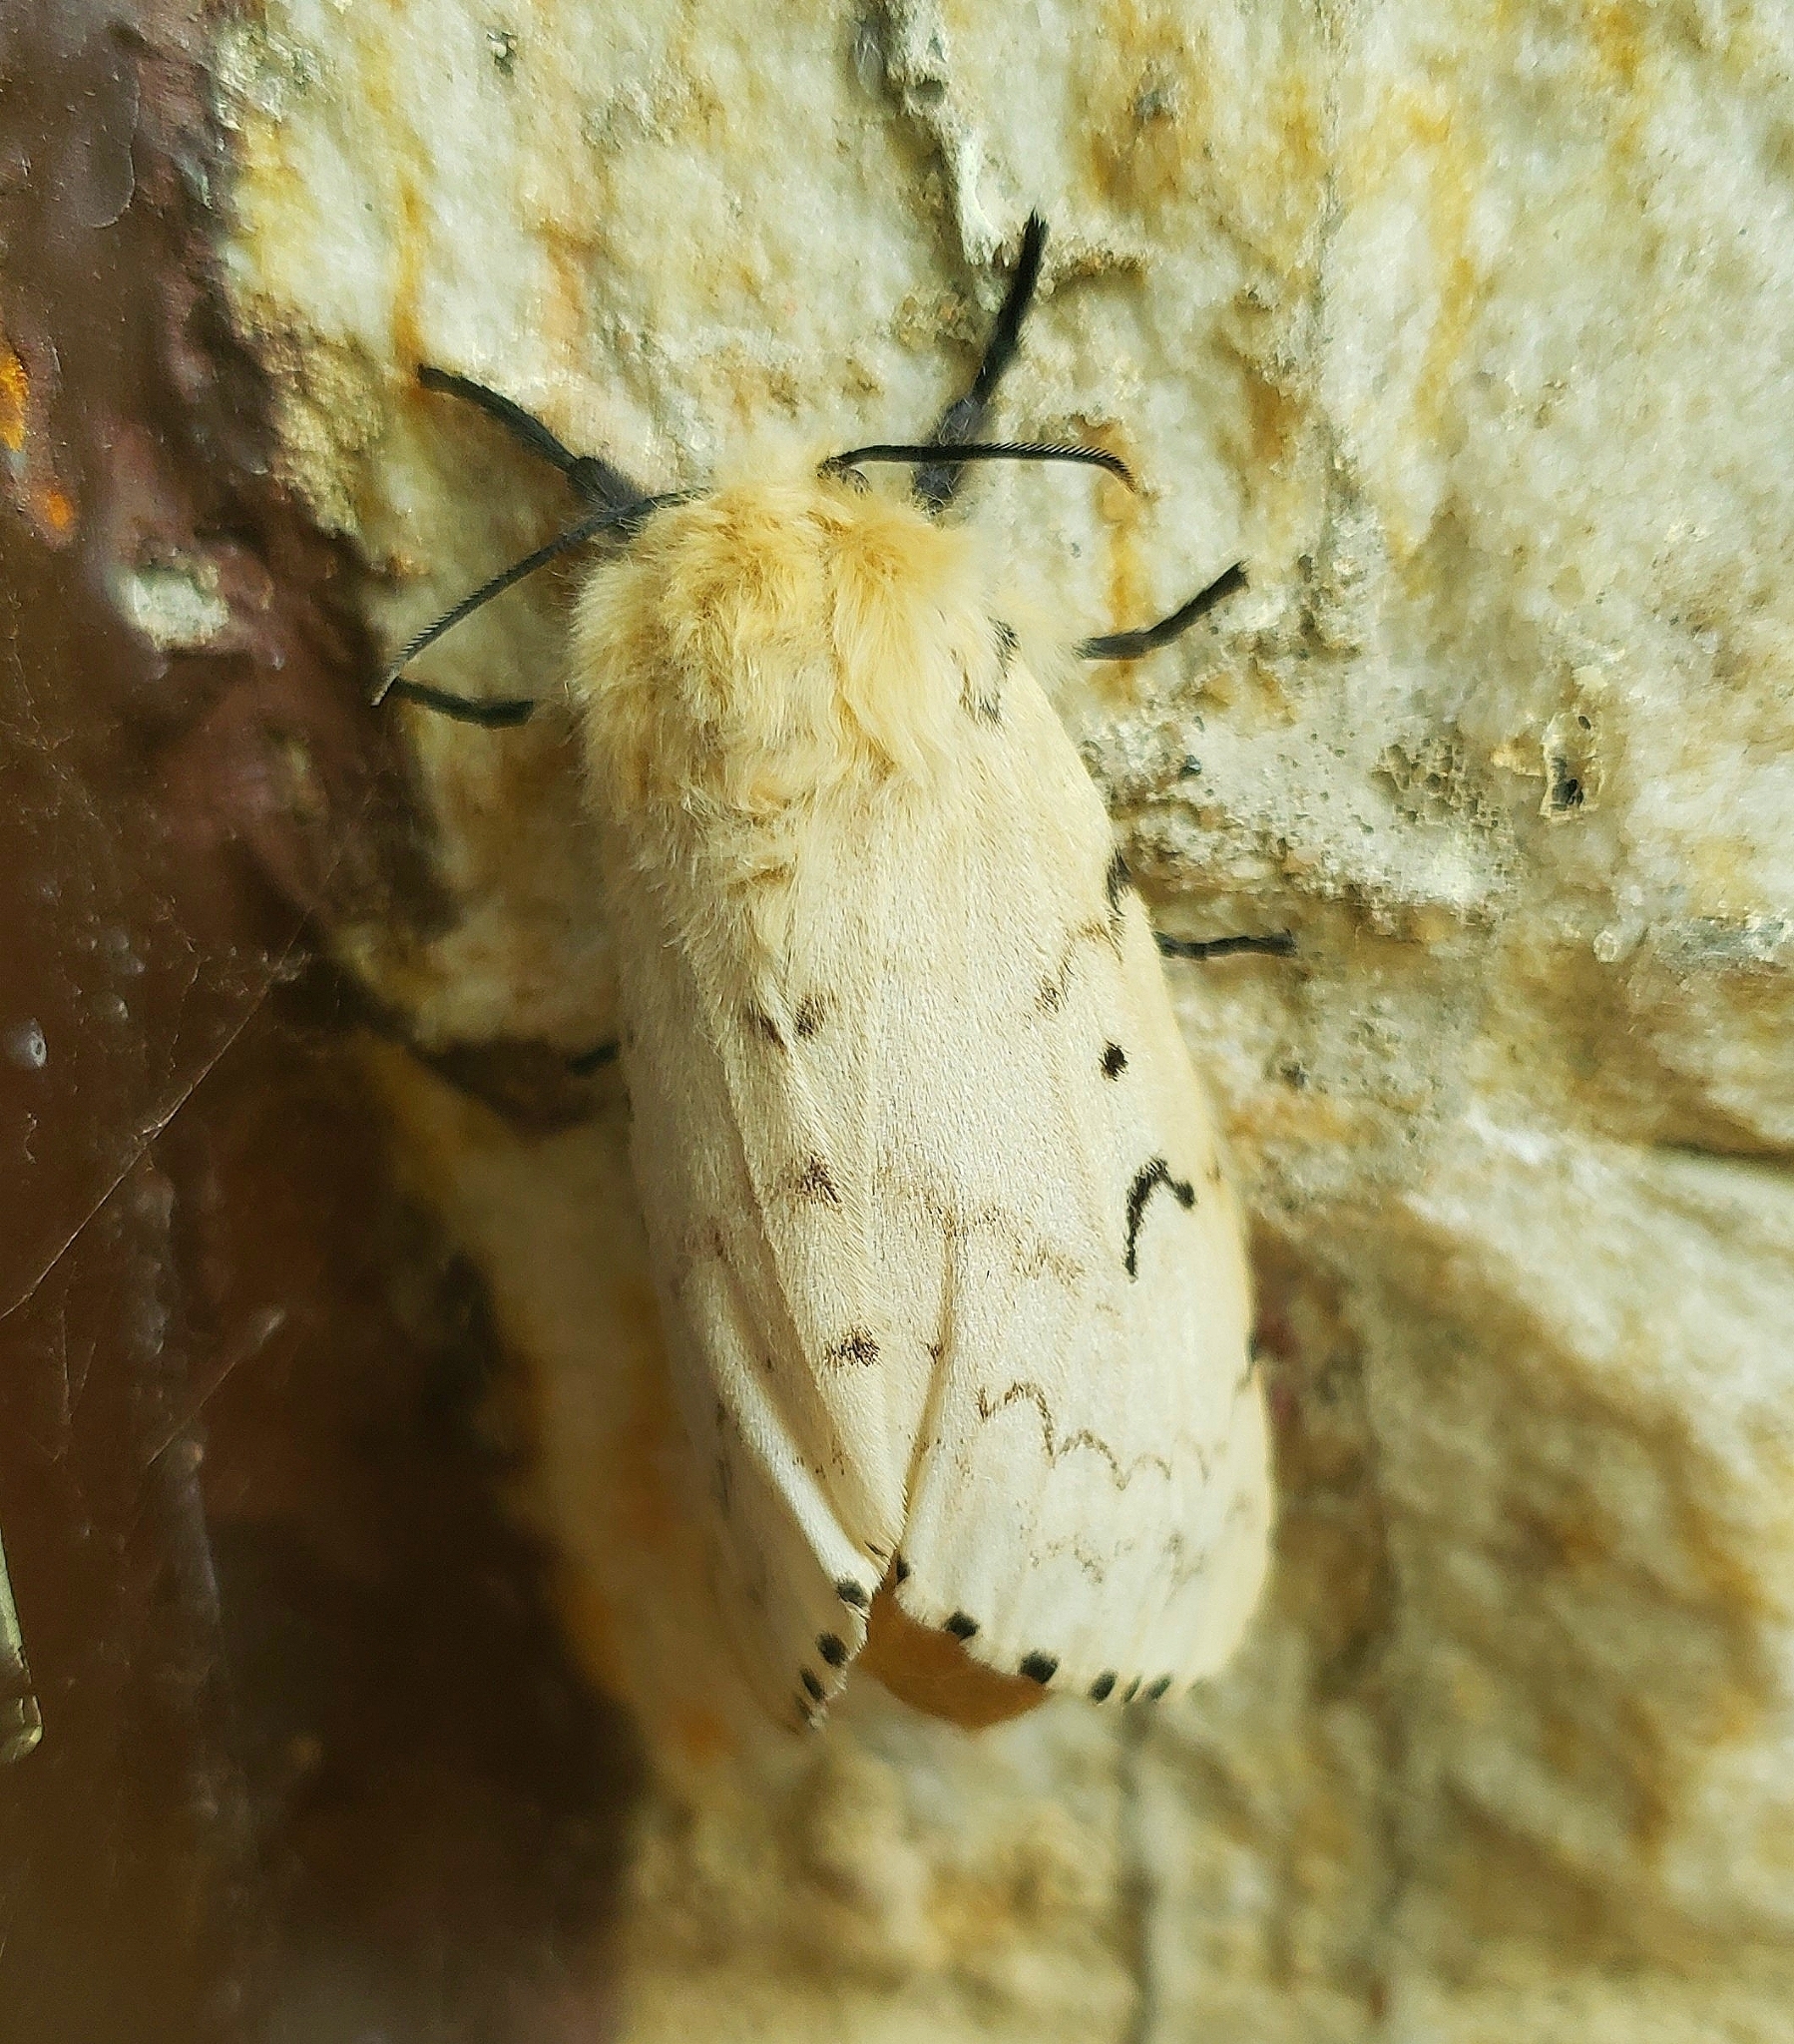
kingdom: Animalia
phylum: Arthropoda
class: Insecta
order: Lepidoptera
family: Erebidae
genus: Lymantria
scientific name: Lymantria dispar
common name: Gypsy moth
